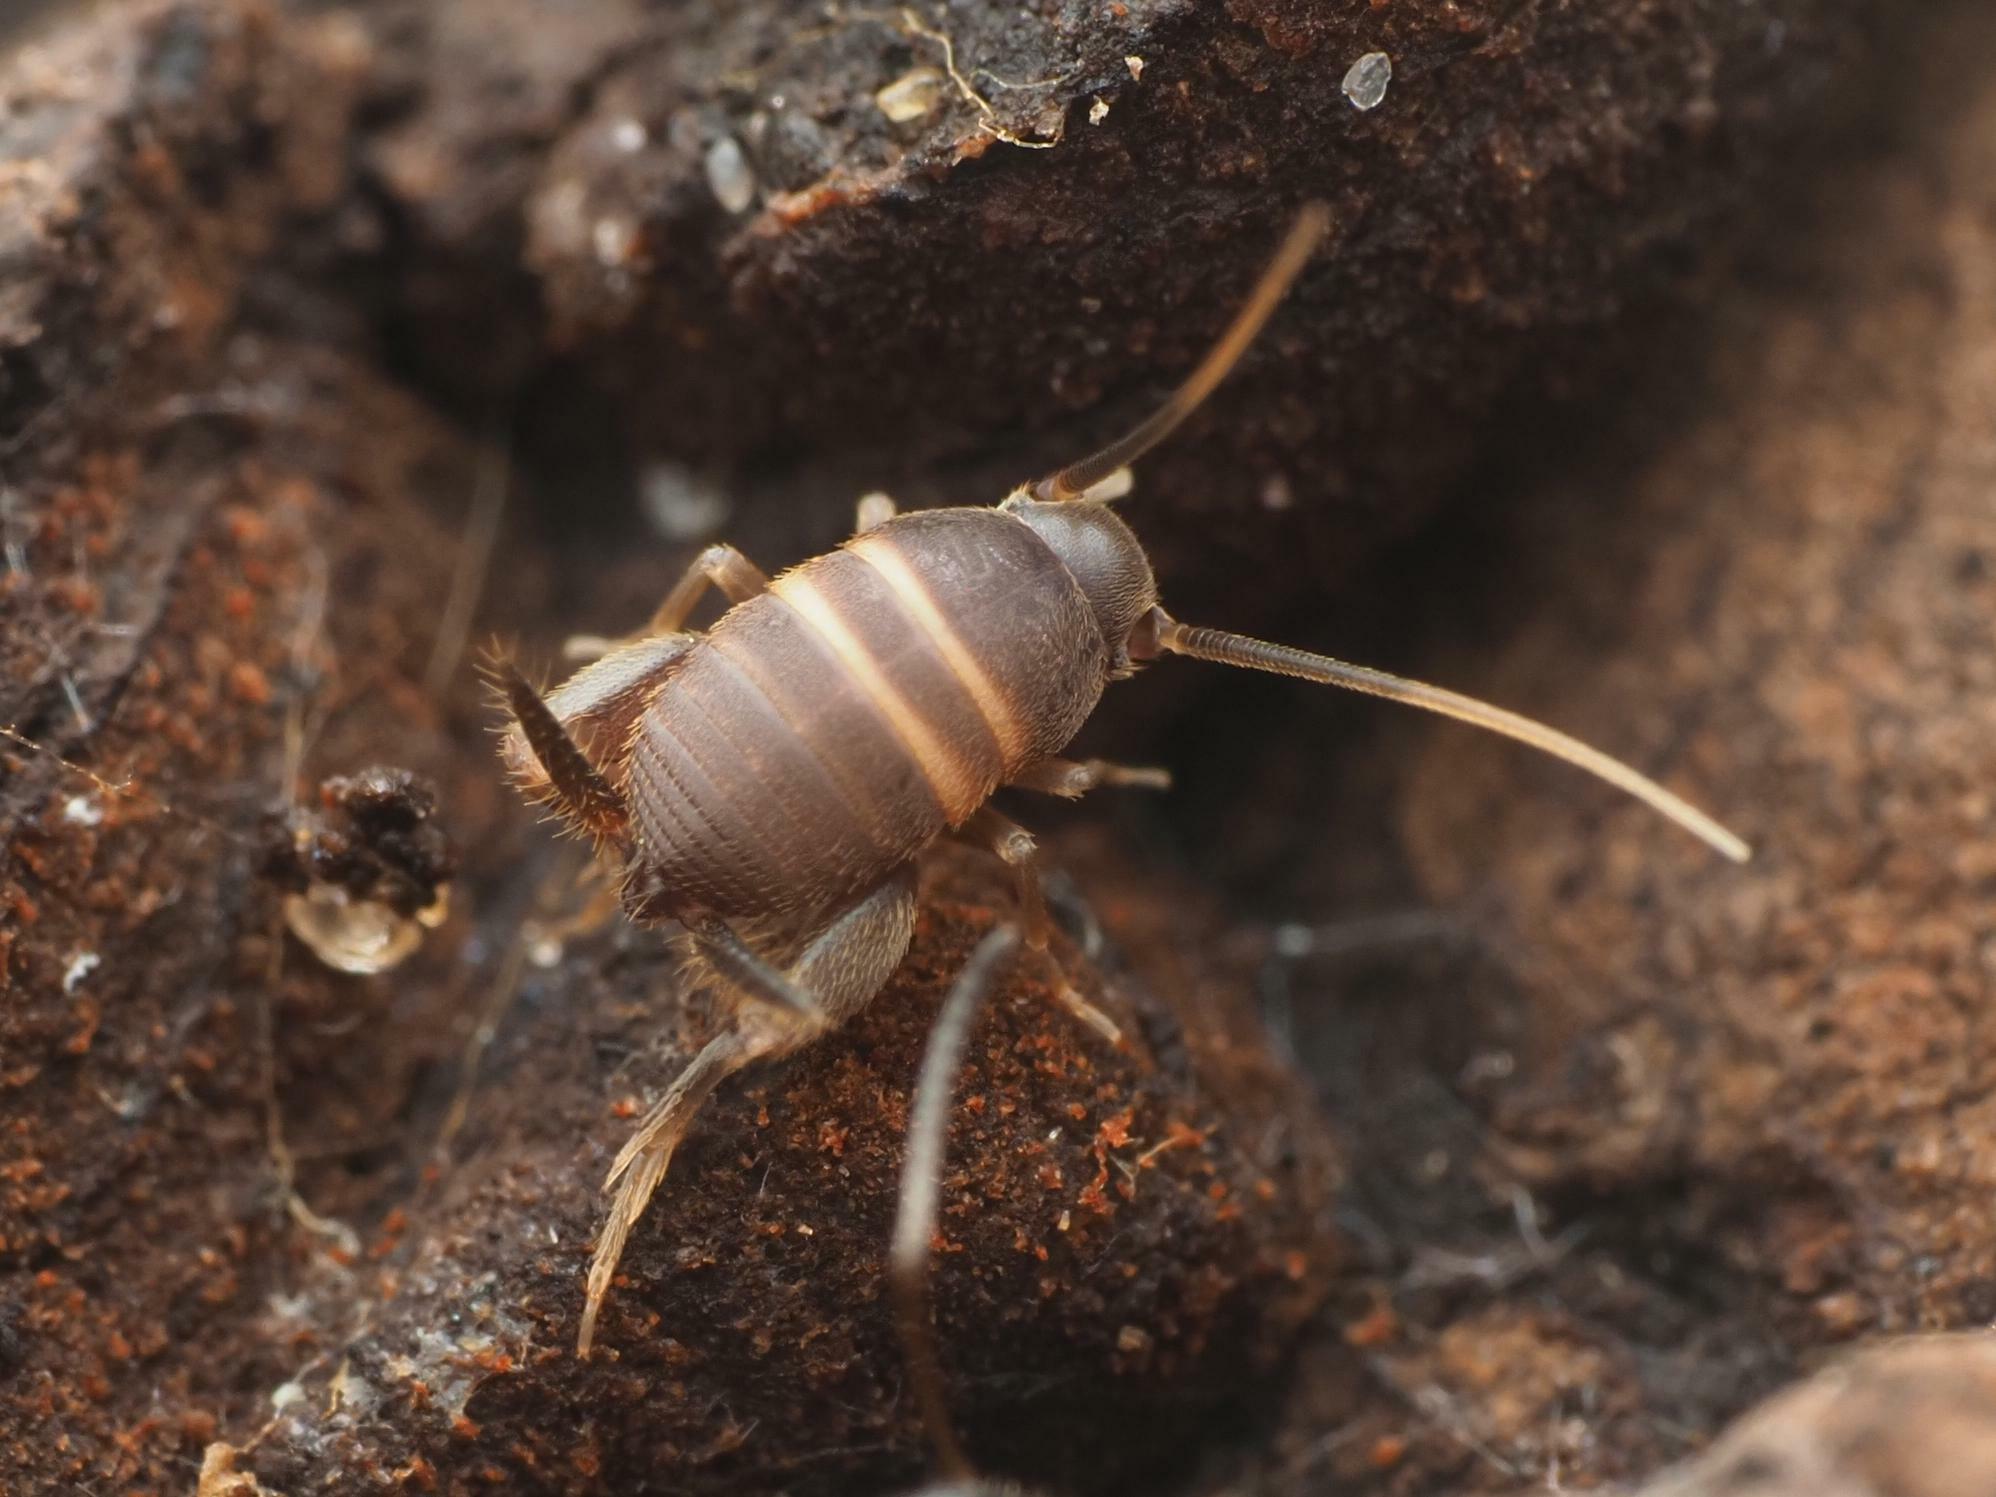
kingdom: Animalia
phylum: Arthropoda
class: Insecta
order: Orthoptera
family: Myrmecophilidae
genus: Myrmecophilus
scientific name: Myrmecophilus acervorum
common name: Ants-nest cricket
